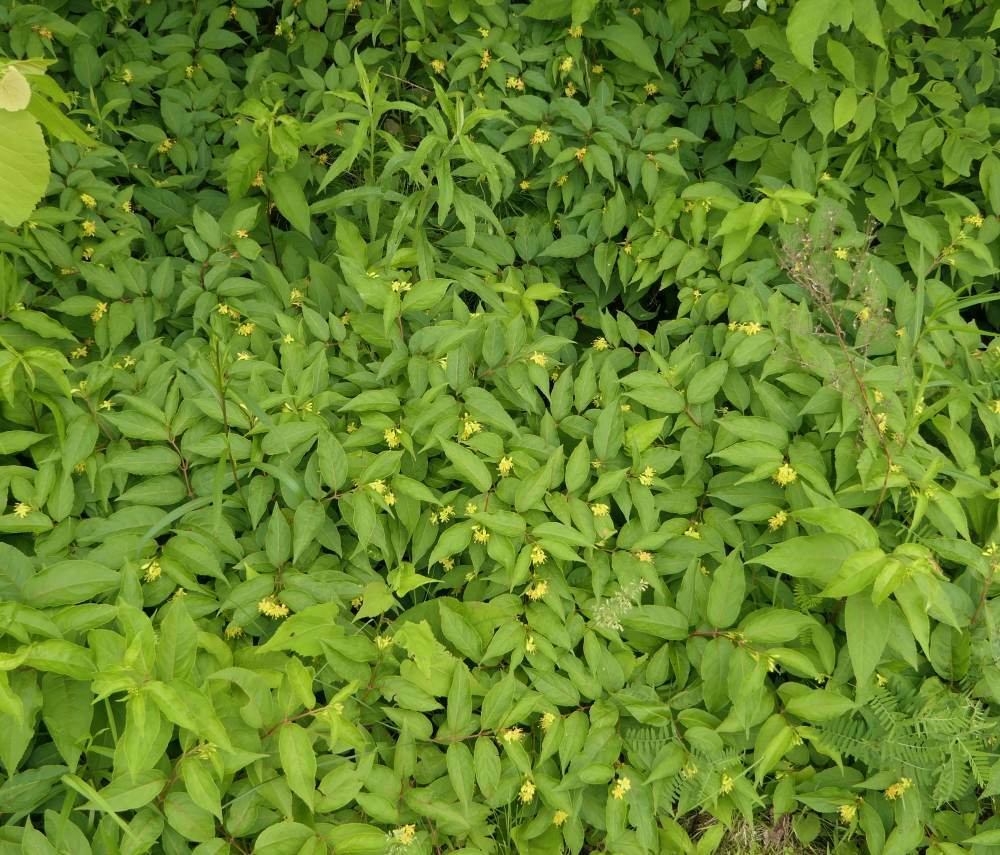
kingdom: Plantae
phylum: Tracheophyta
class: Magnoliopsida
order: Dipsacales
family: Caprifoliaceae
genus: Diervilla
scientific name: Diervilla lonicera
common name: Bush-honeysuckle
